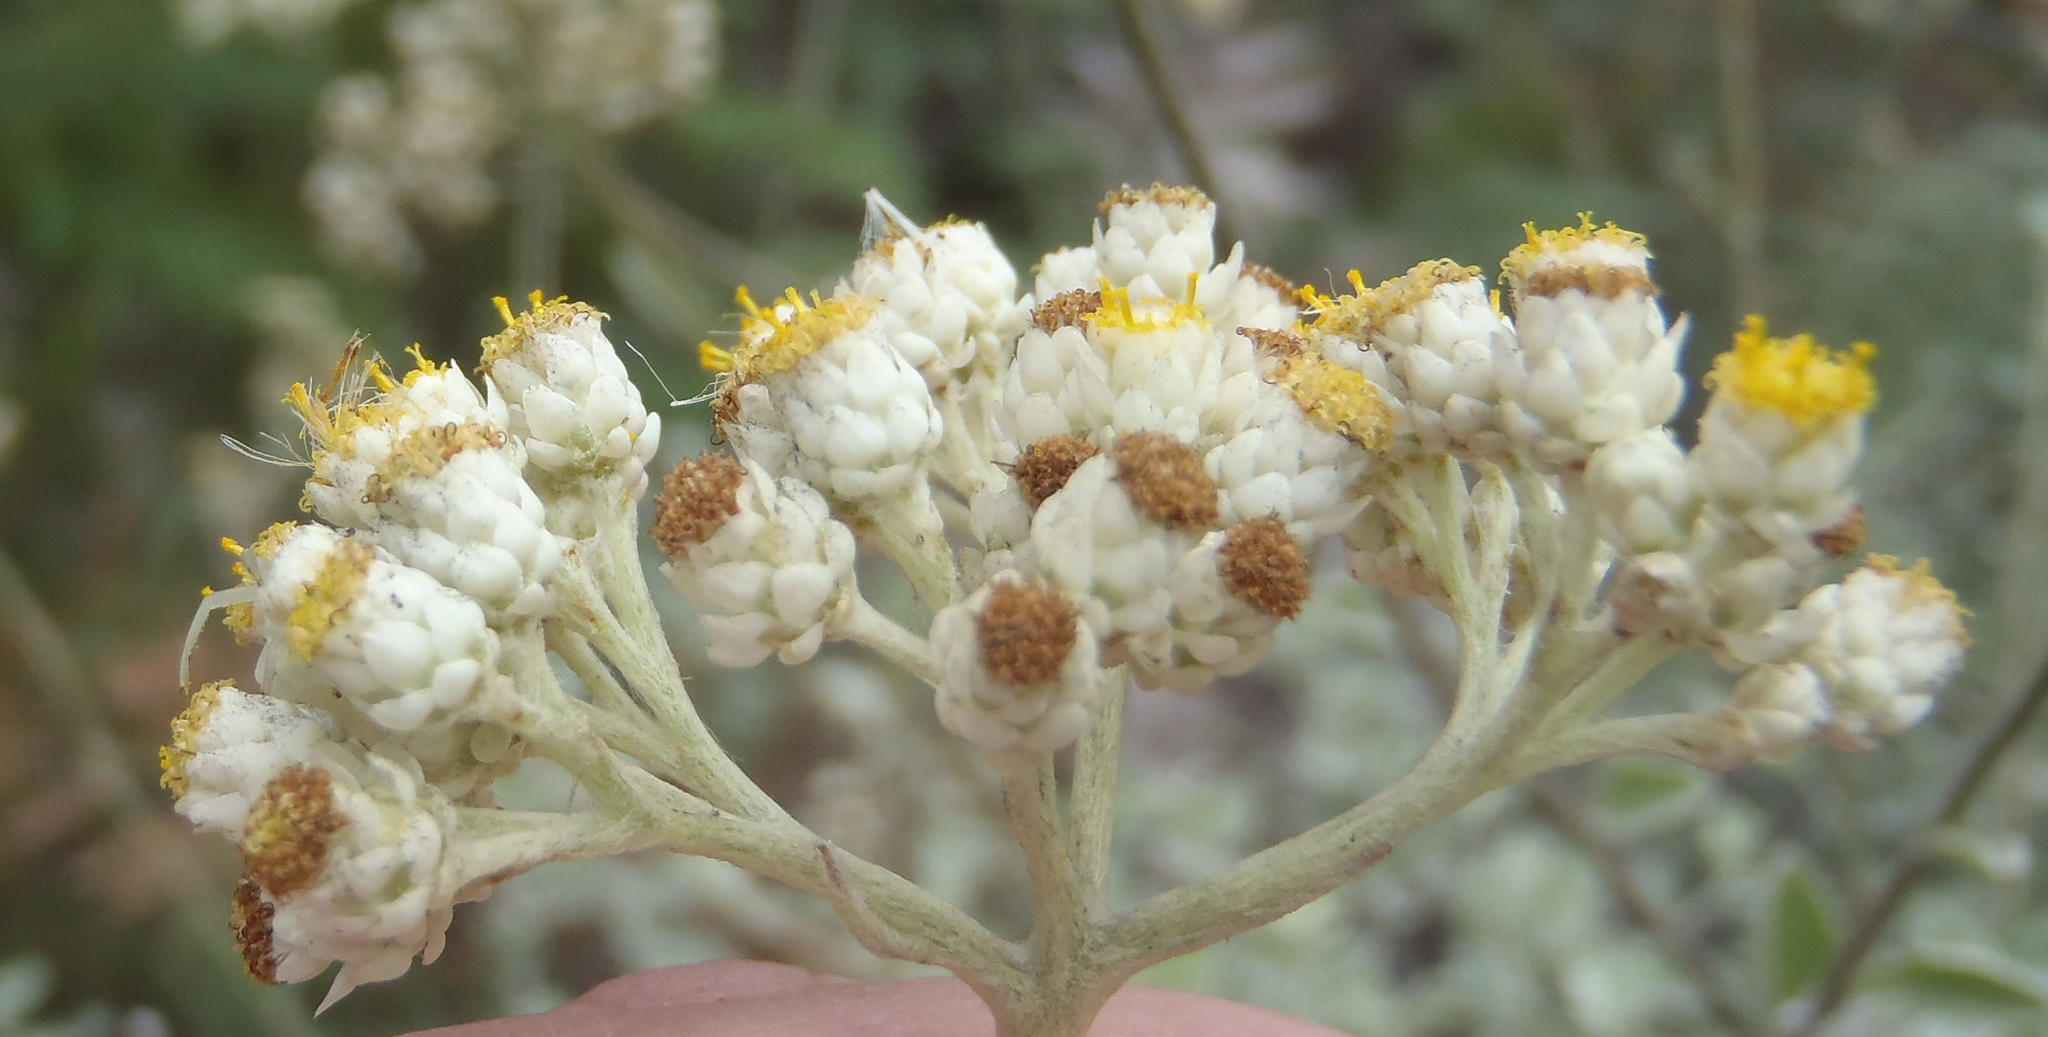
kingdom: Plantae
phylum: Tracheophyta
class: Magnoliopsida
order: Asterales
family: Asteraceae
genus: Helichrysum
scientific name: Helichrysum petiolare
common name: Licorice-plant
